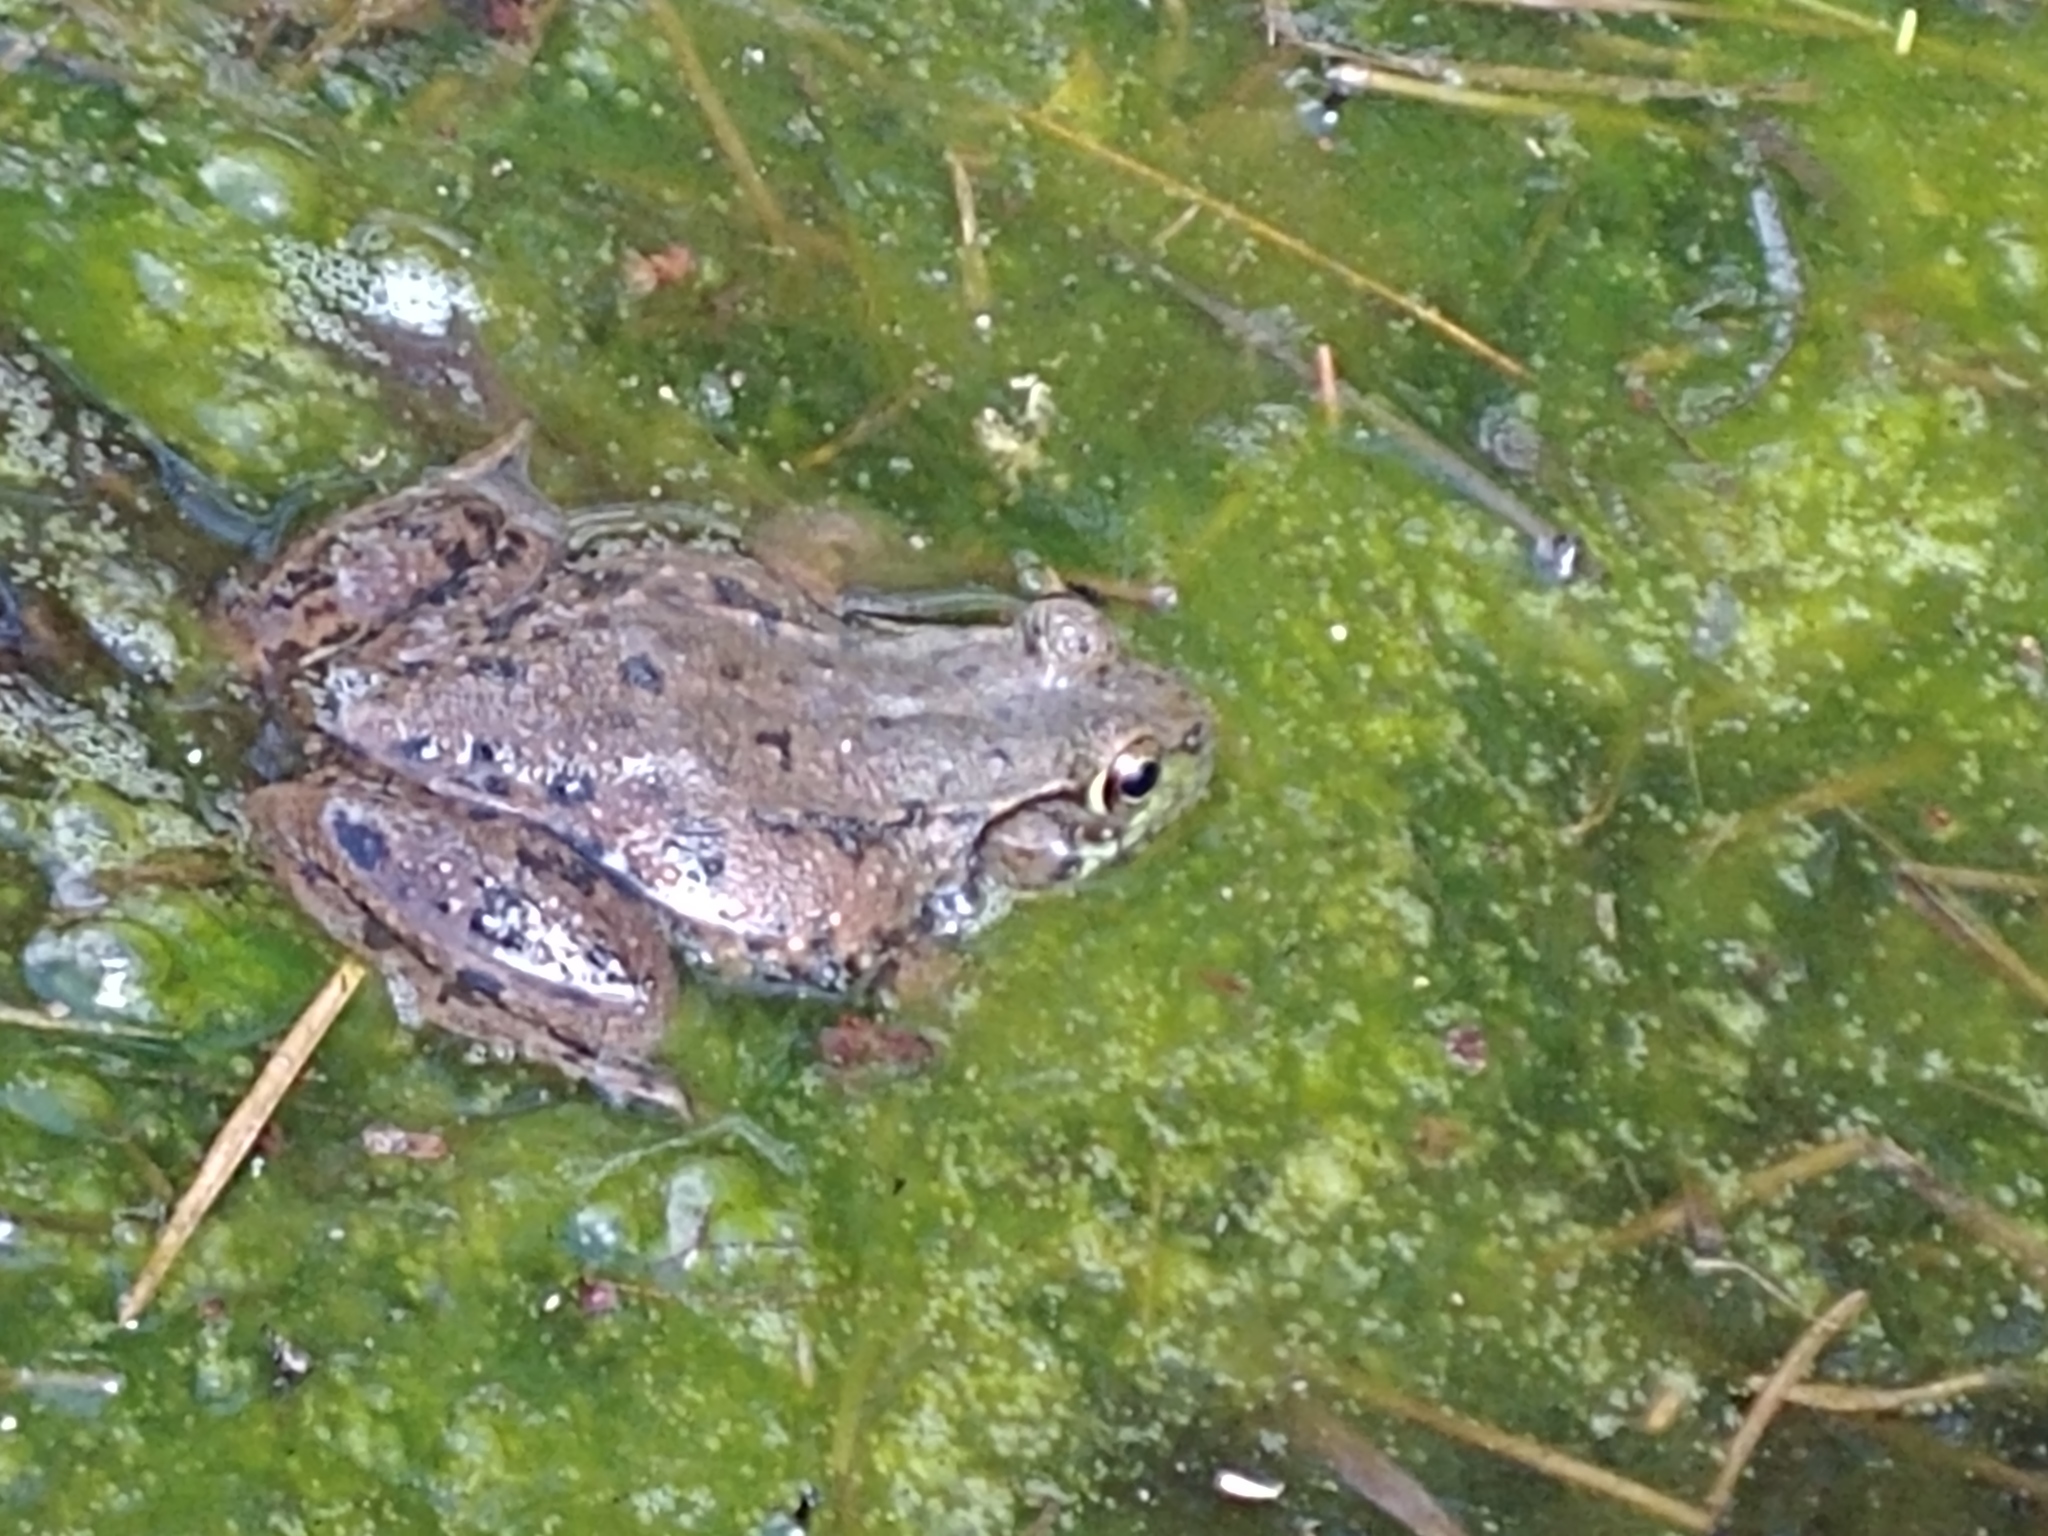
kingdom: Animalia
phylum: Chordata
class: Amphibia
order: Anura
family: Ranidae
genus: Lithobates
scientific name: Lithobates clamitans
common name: Green frog
